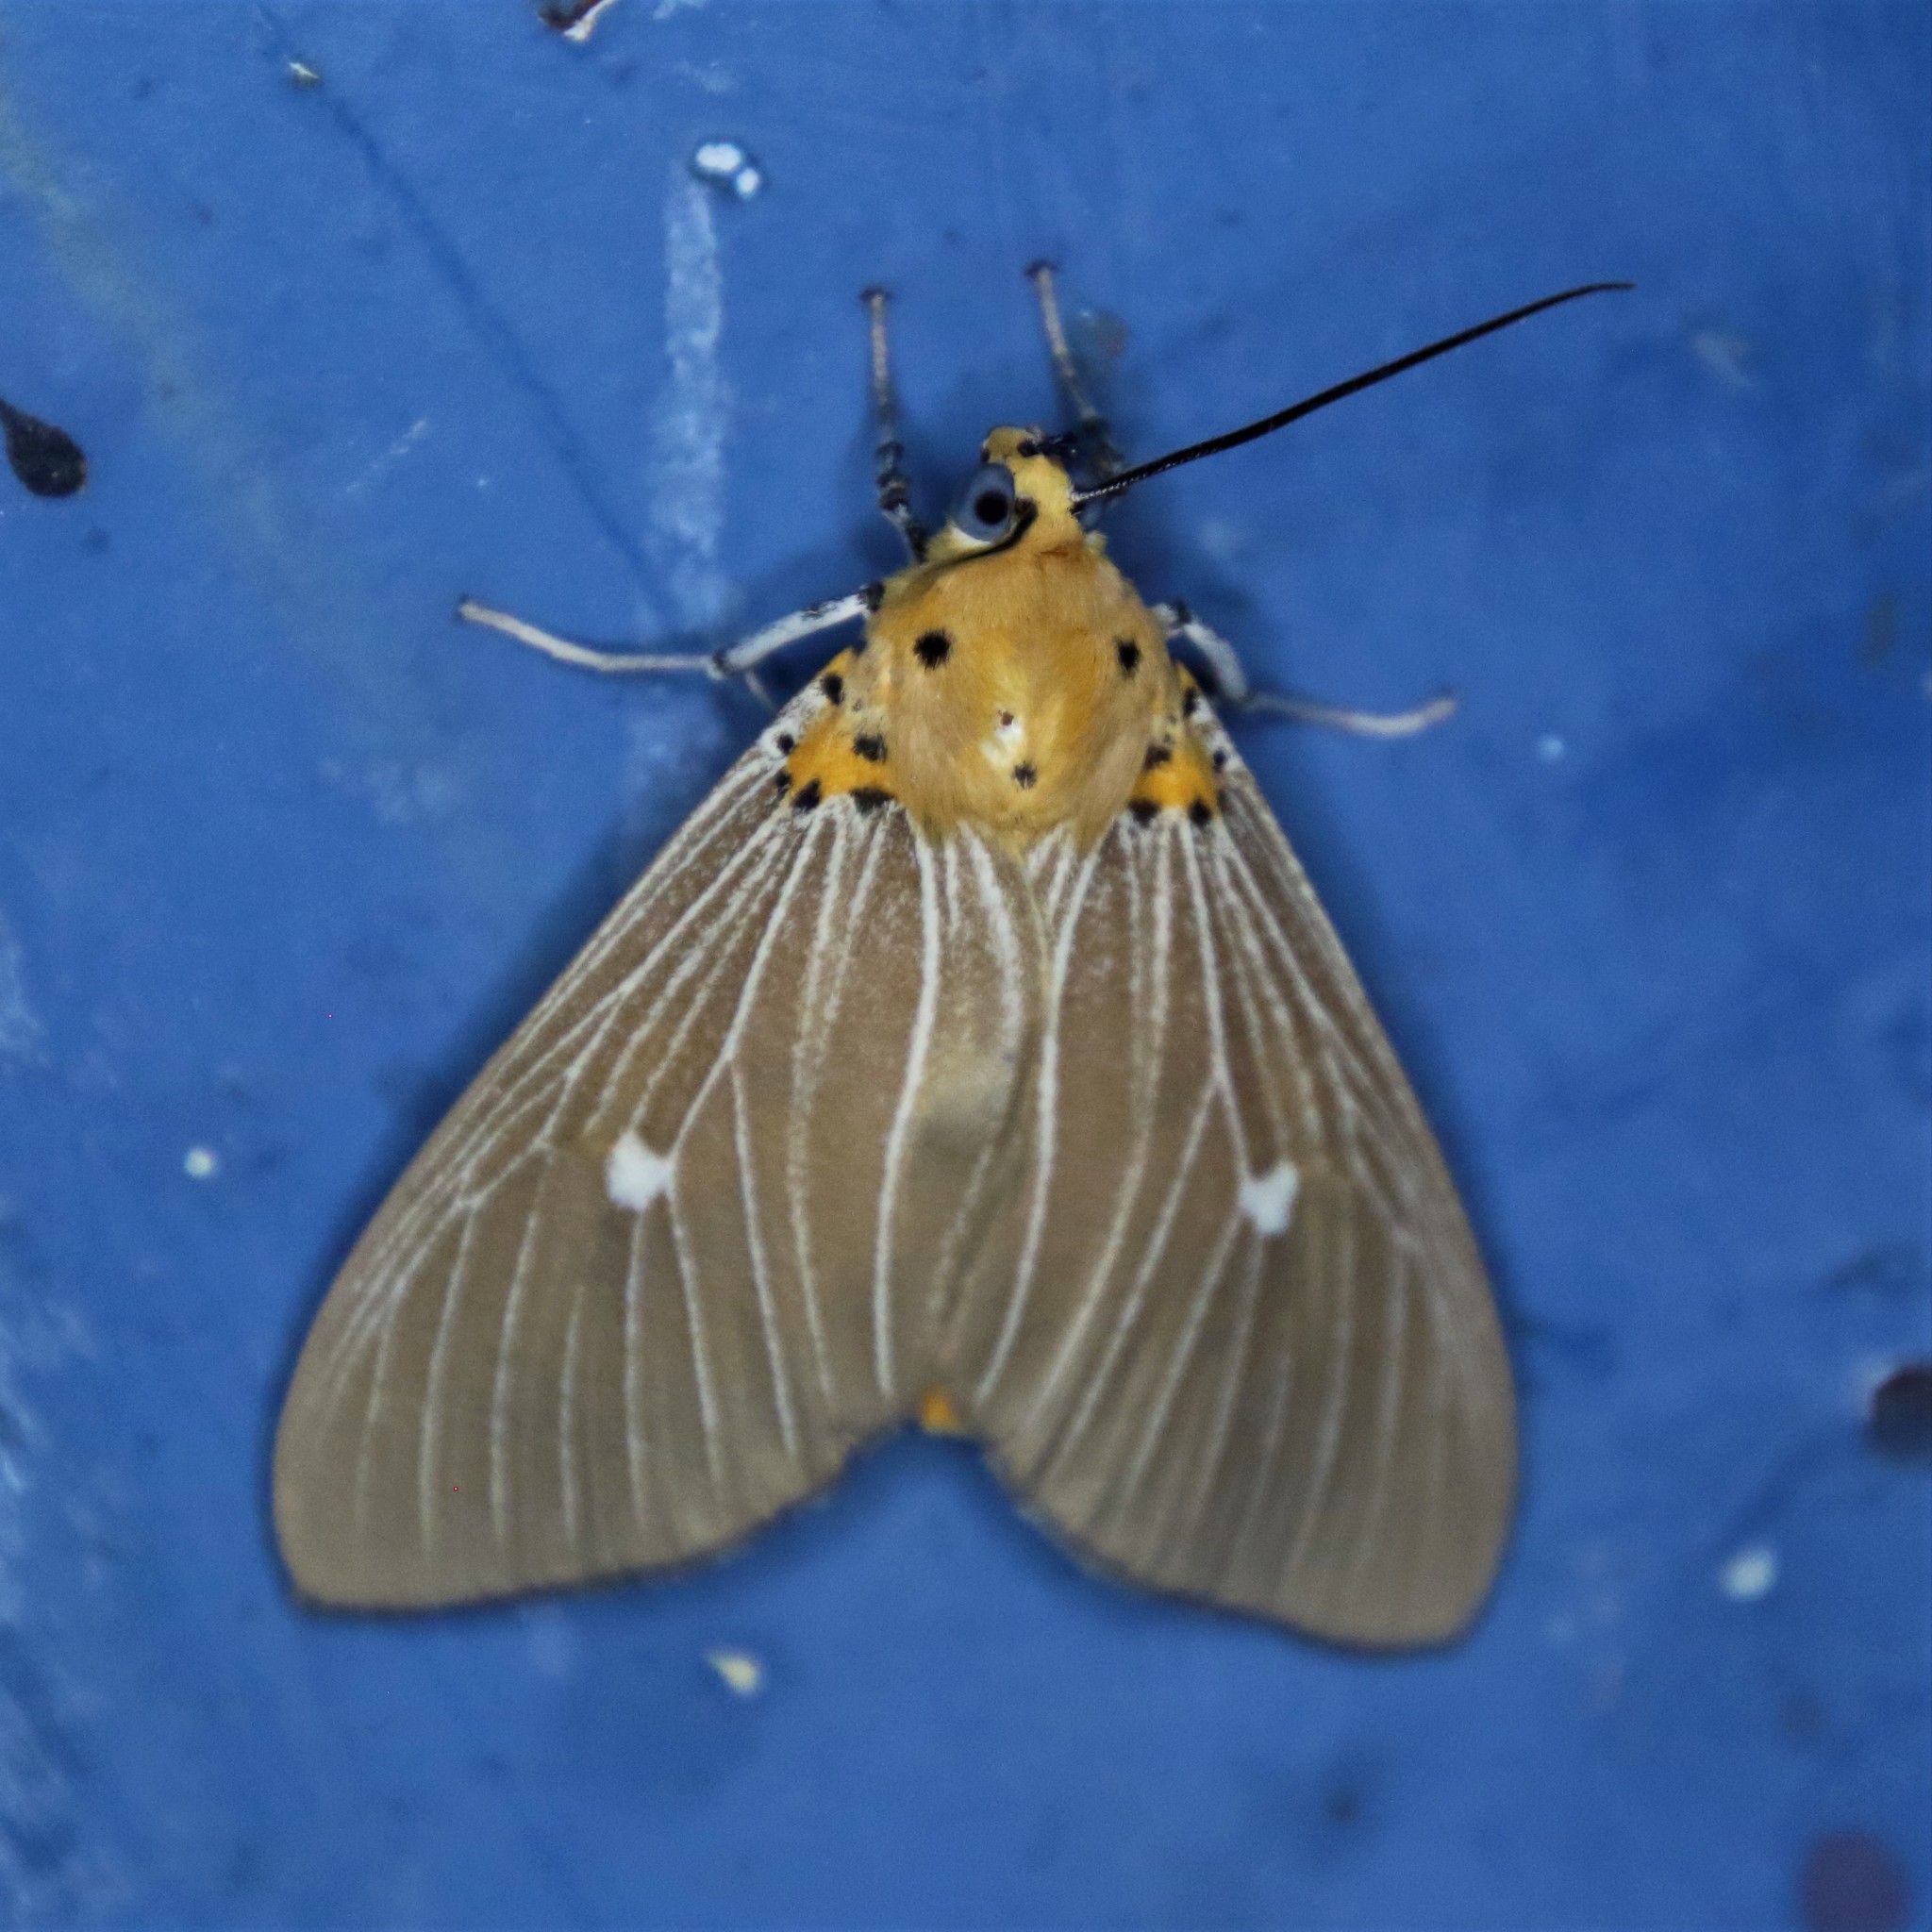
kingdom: Animalia
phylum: Arthropoda
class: Insecta
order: Lepidoptera
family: Erebidae
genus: Asota
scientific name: Asota caricae
